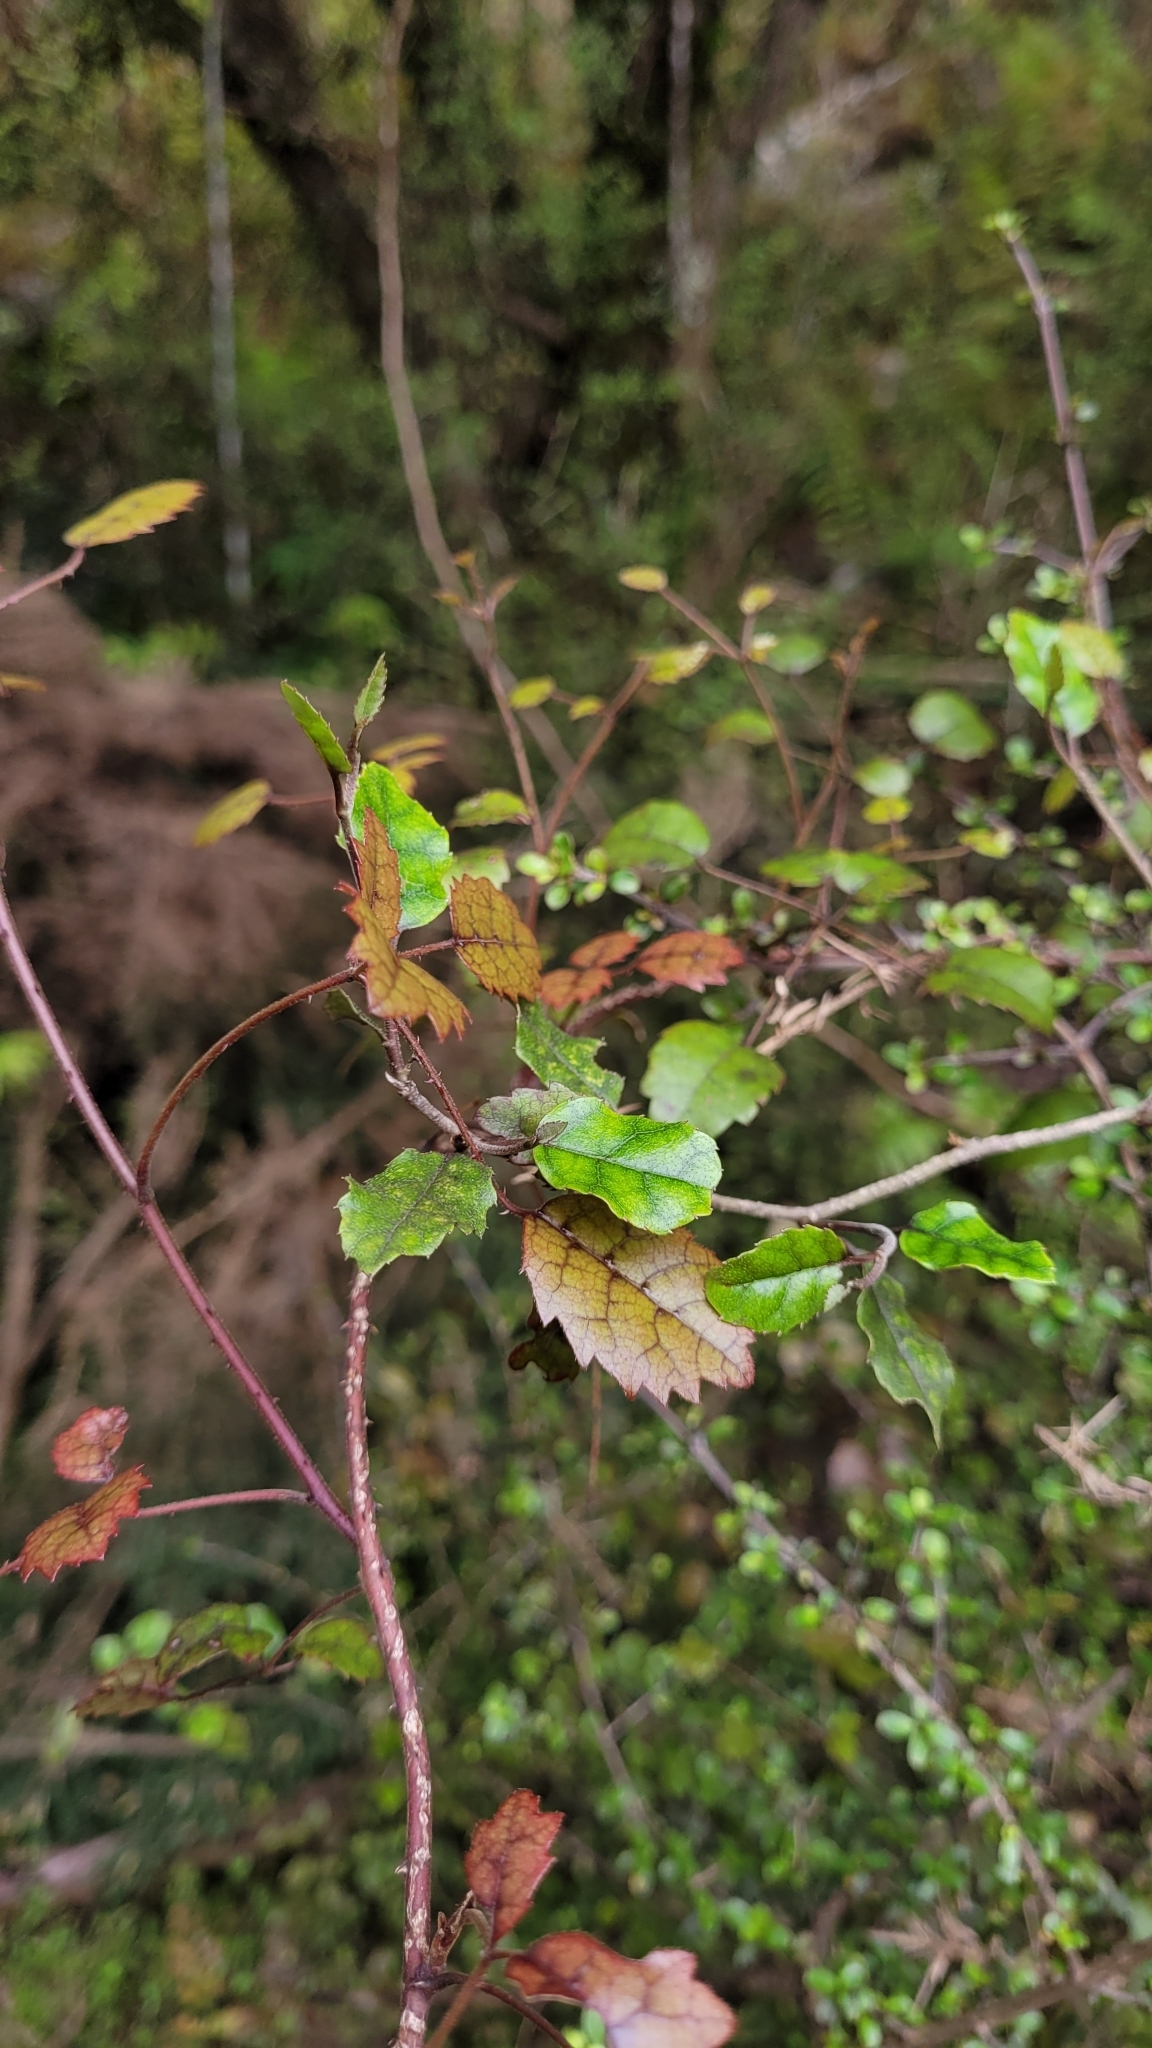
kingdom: Plantae
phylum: Tracheophyta
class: Magnoliopsida
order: Rosales
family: Rosaceae
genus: Rubus
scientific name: Rubus australis
